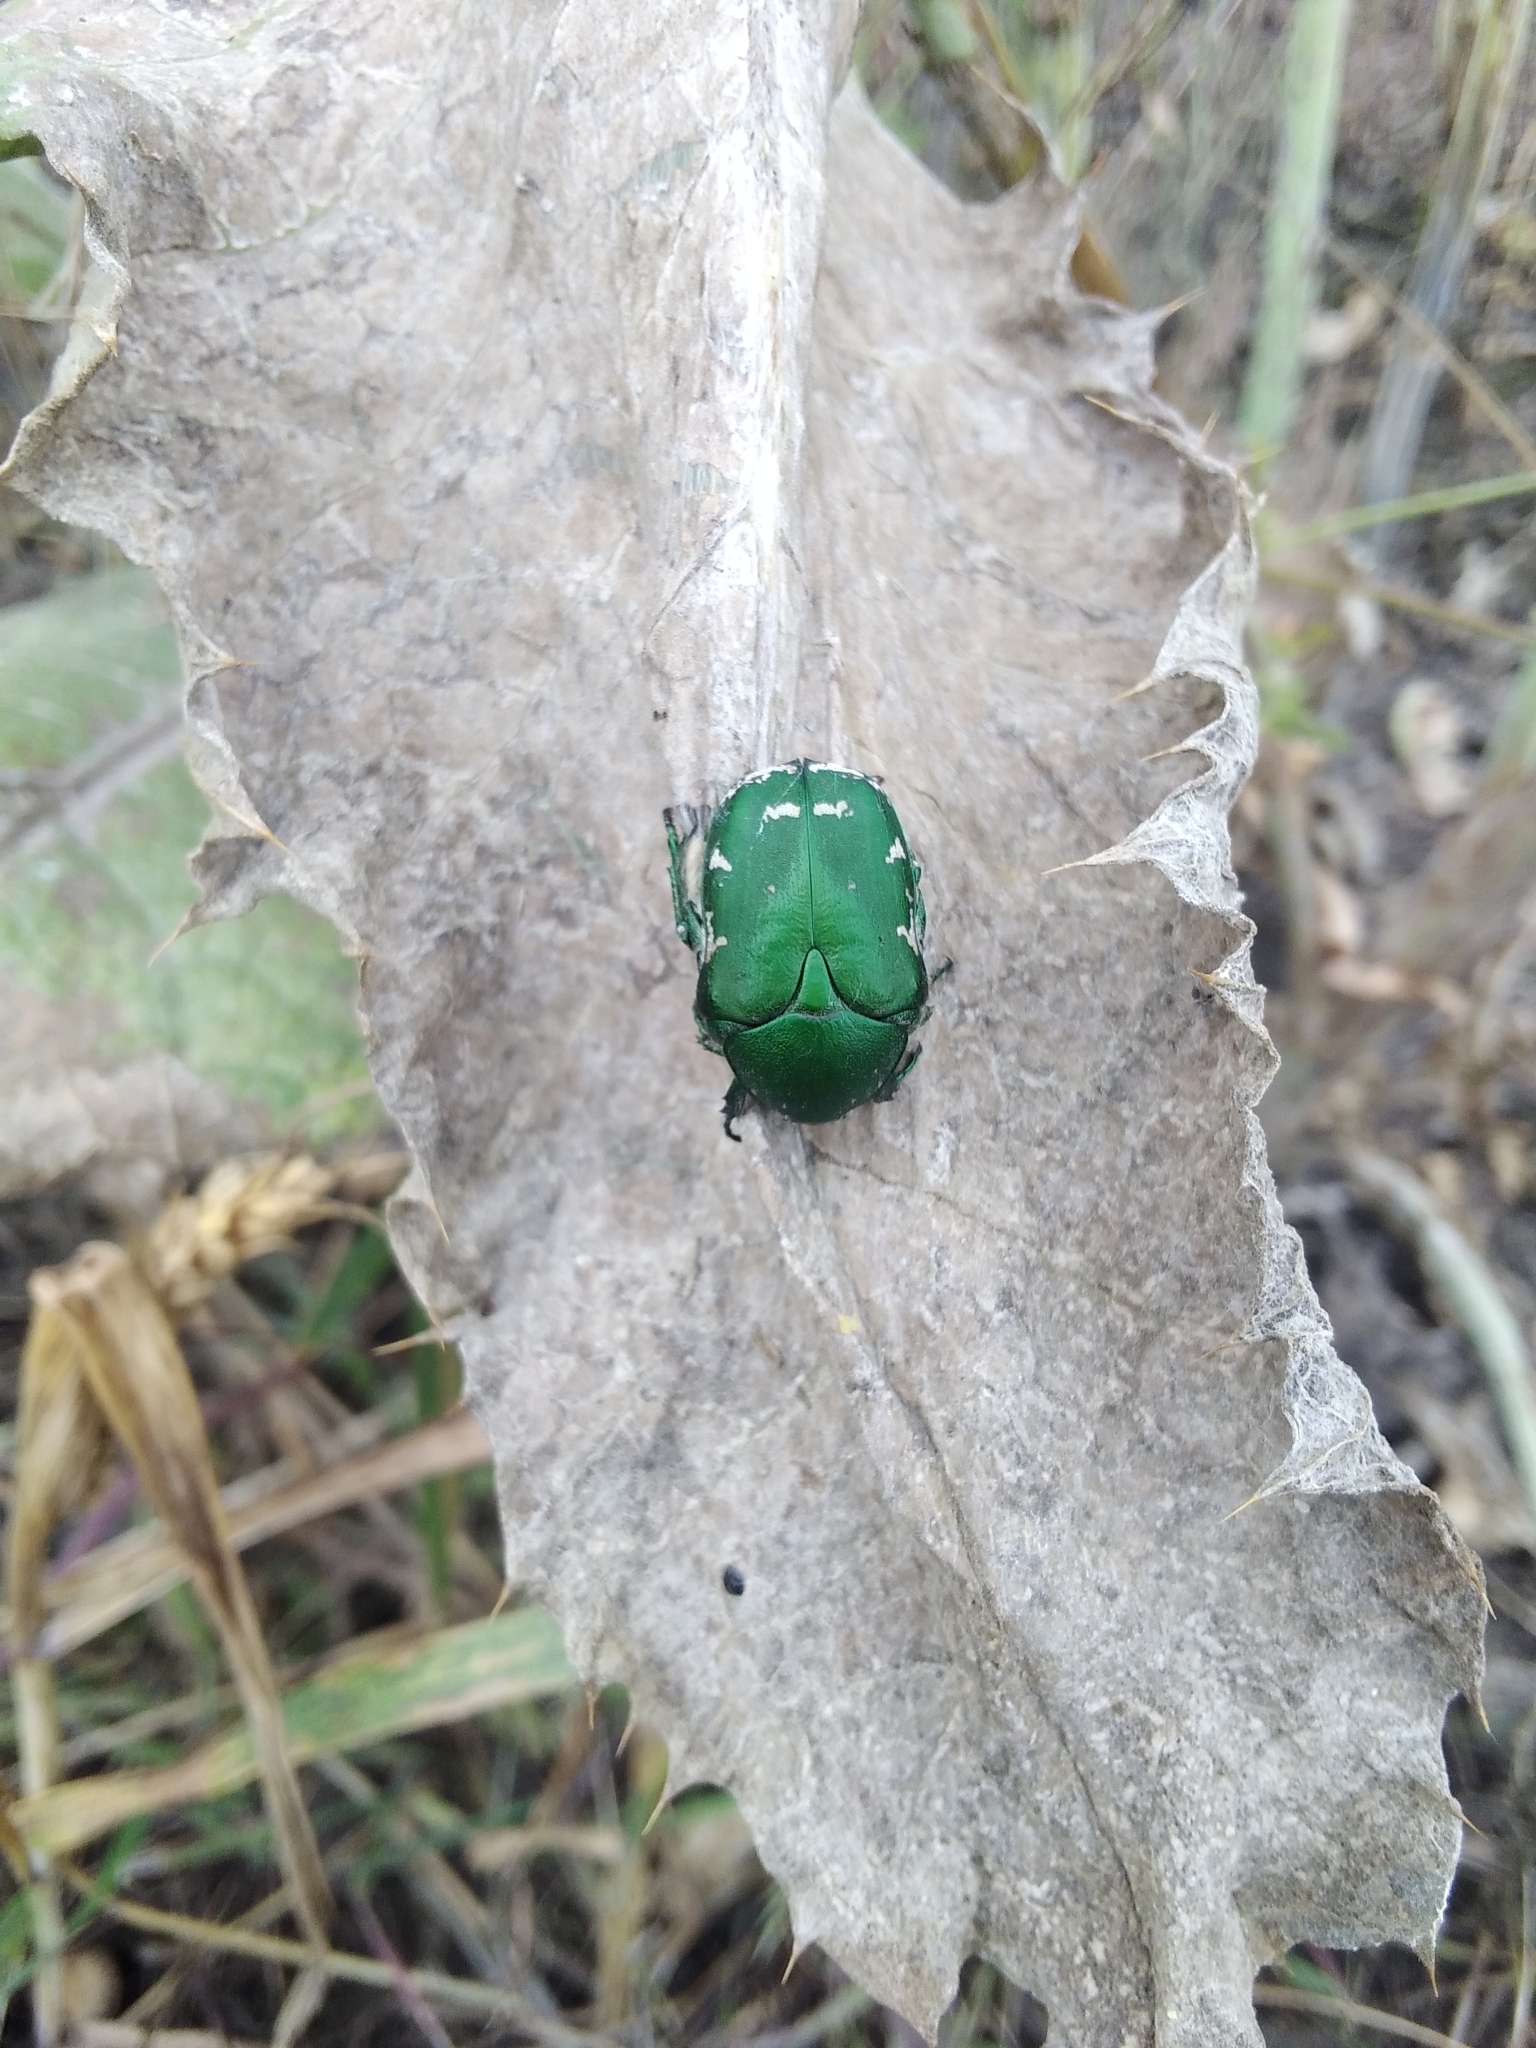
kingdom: Animalia
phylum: Arthropoda
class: Insecta
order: Coleoptera
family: Scarabaeidae
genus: Protaetia
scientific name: Protaetia ungarica
